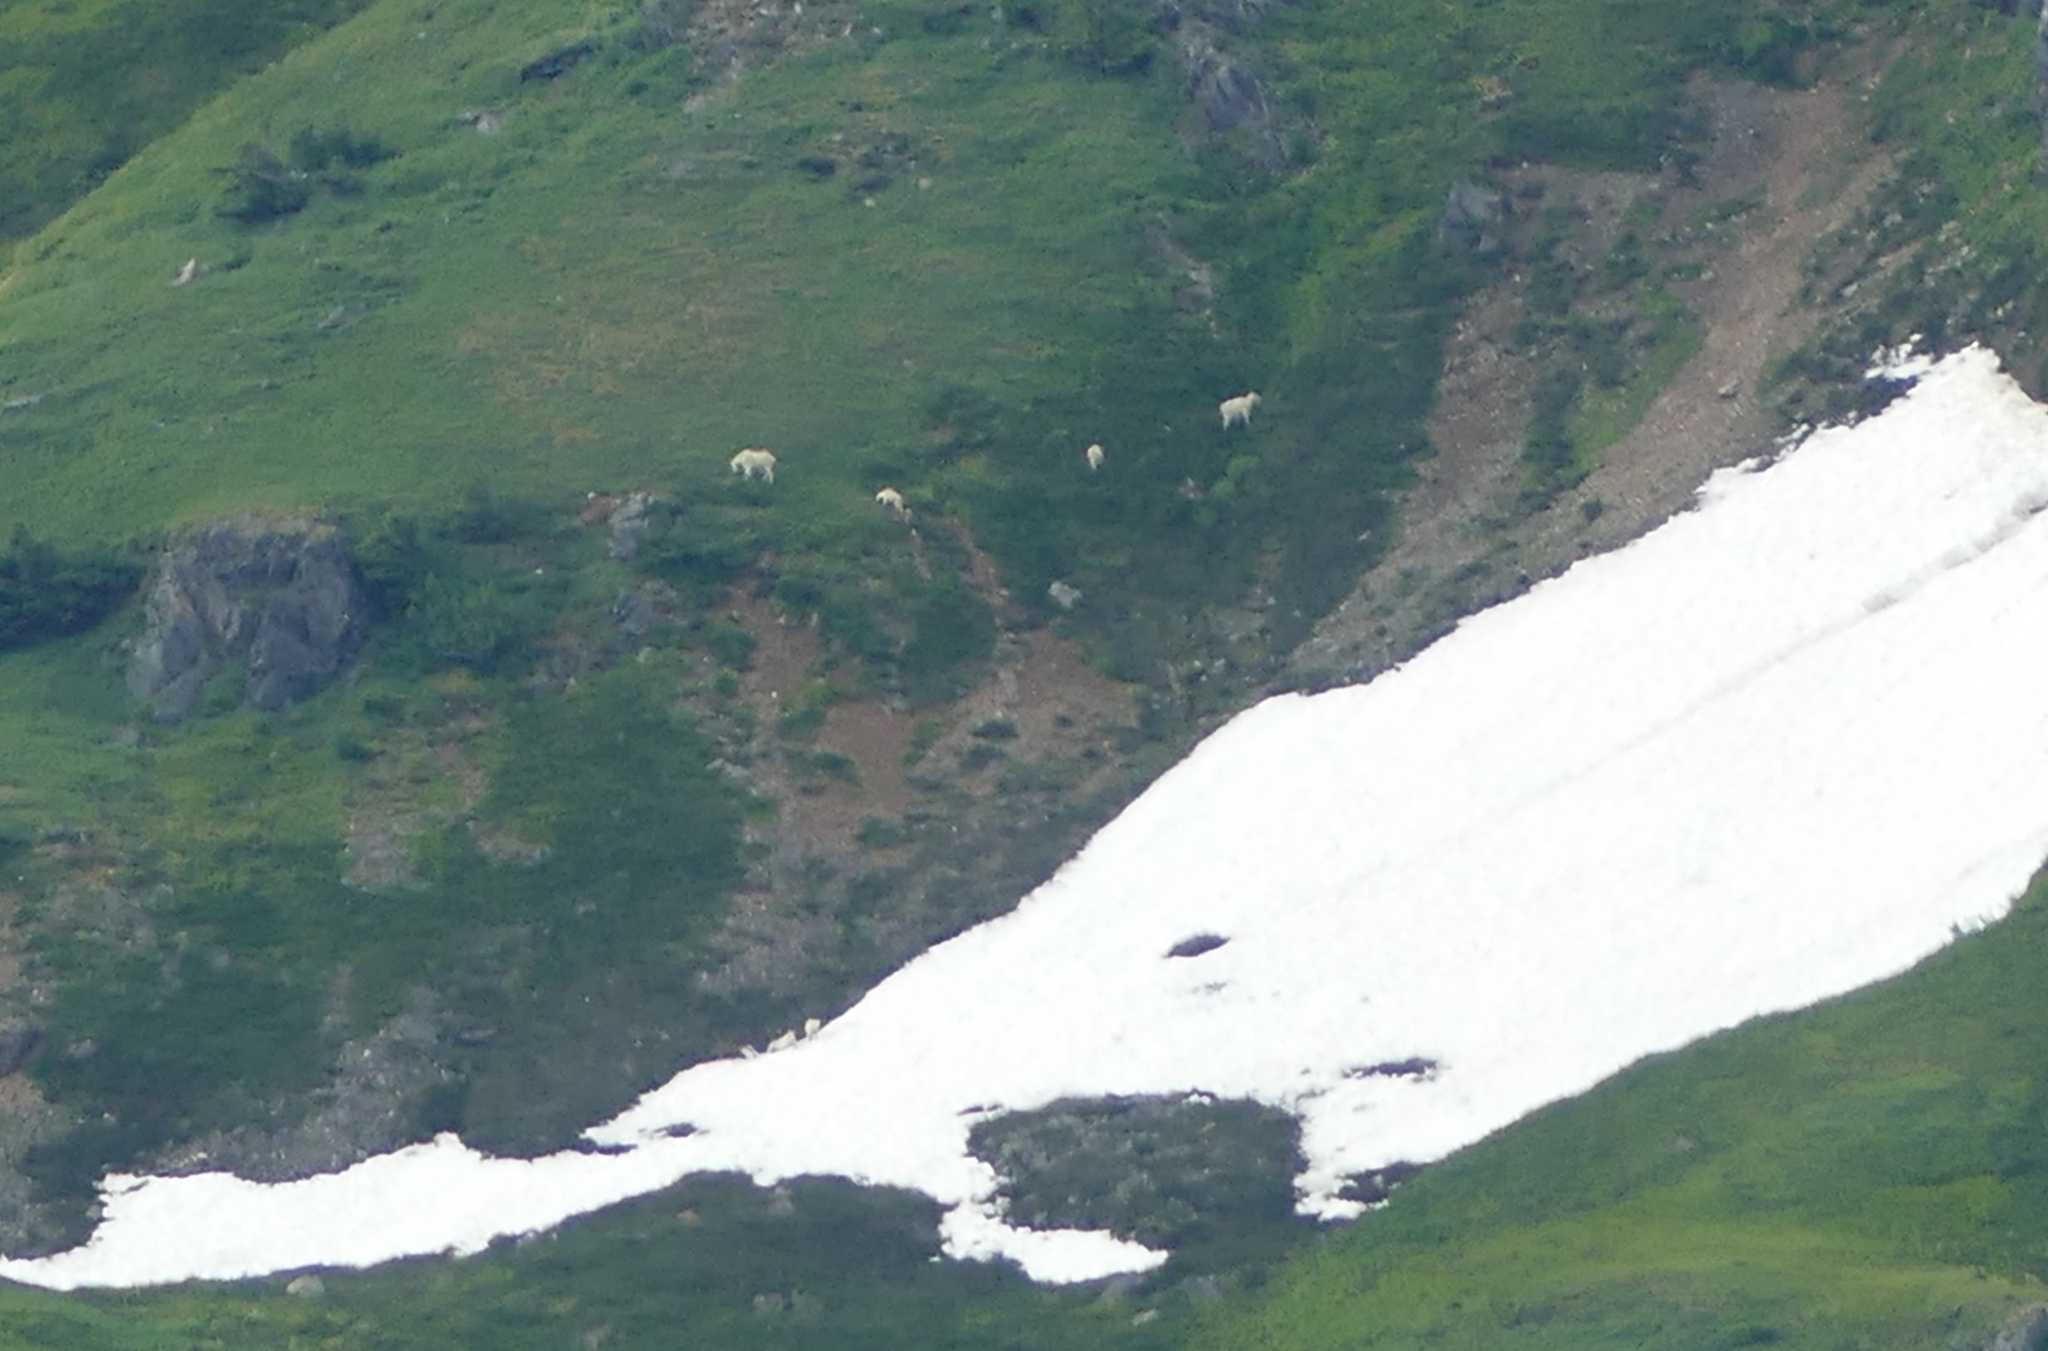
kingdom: Animalia
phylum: Chordata
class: Mammalia
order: Artiodactyla
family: Bovidae
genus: Oreamnos
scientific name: Oreamnos americanus
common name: Mountain goat
